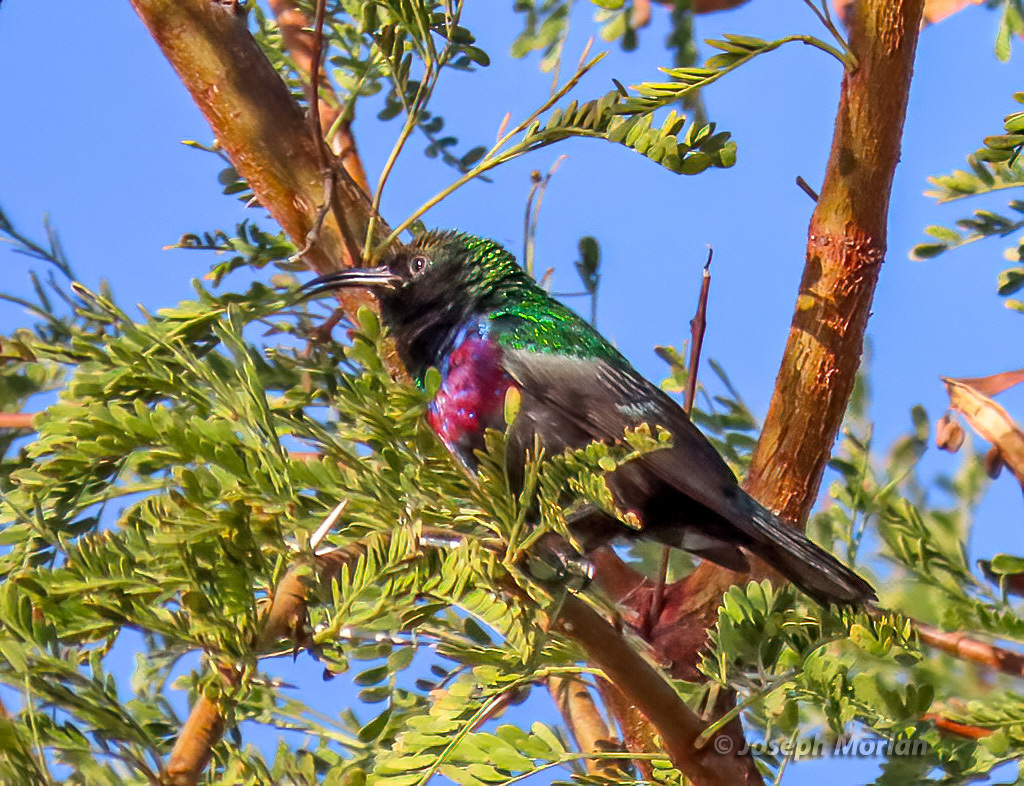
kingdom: Animalia
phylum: Chordata
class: Aves
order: Passeriformes
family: Nectariniidae
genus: Cinnyris
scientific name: Cinnyris mariquensis
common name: Marico sunbird
